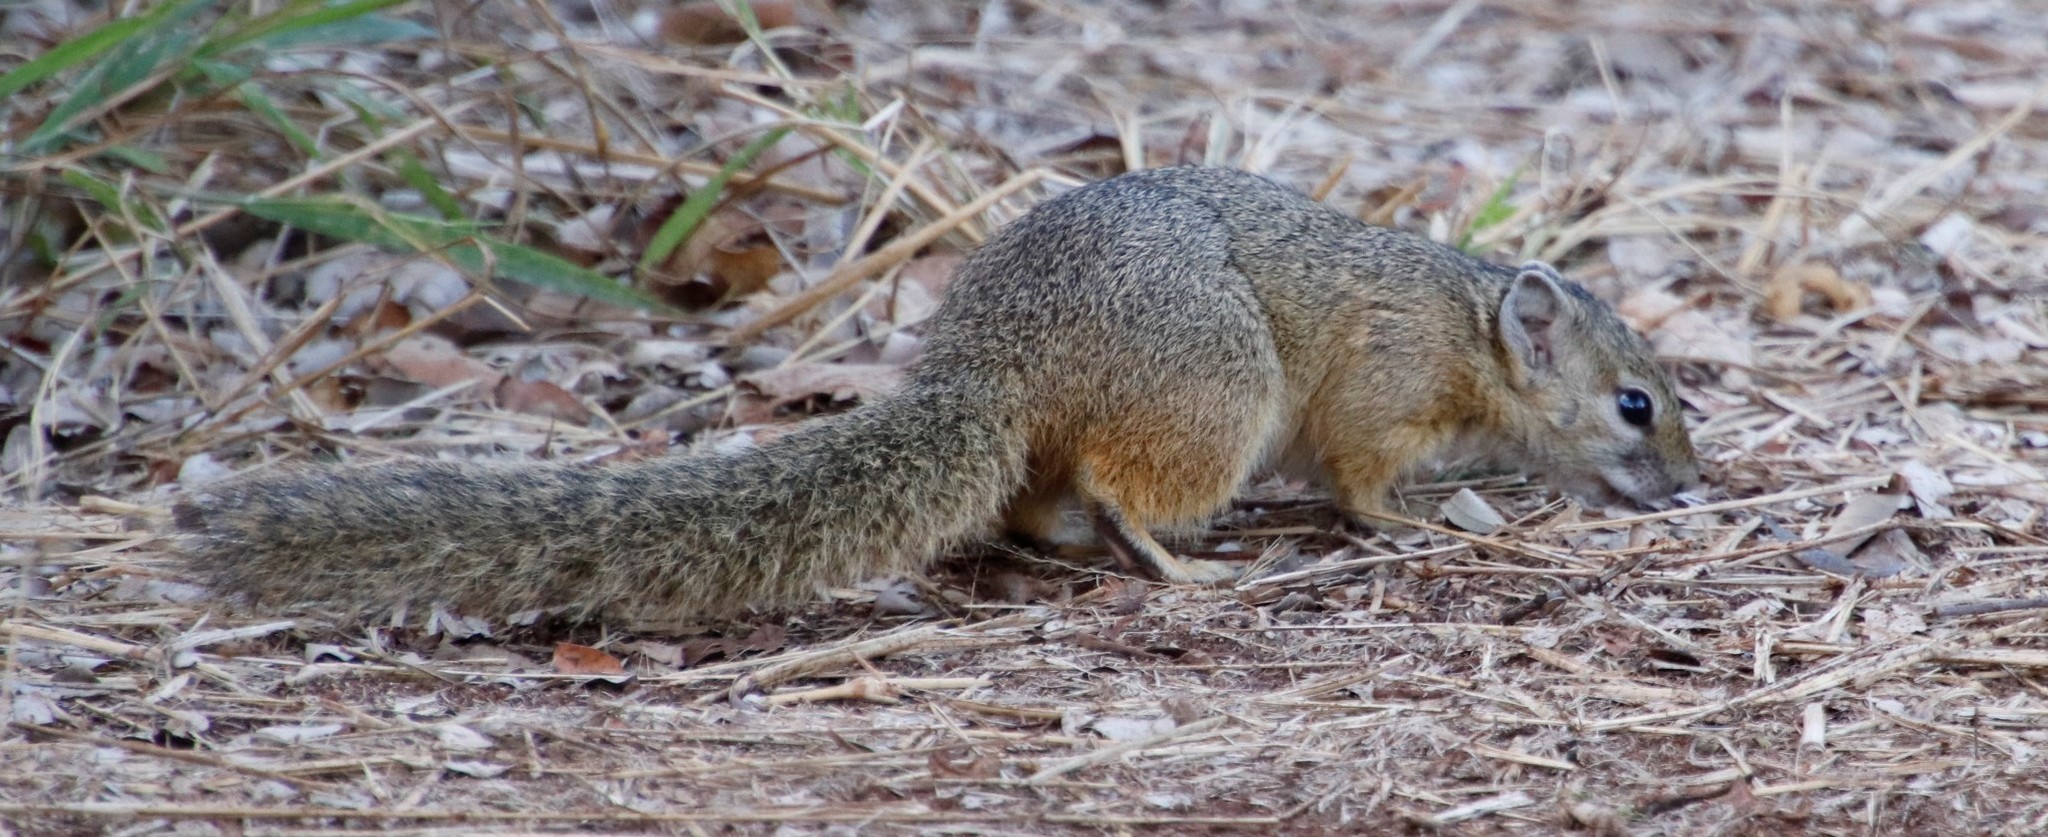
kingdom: Animalia
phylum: Chordata
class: Mammalia
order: Rodentia
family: Sciuridae
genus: Paraxerus
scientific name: Paraxerus cepapi
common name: Smith's bush squirrel
